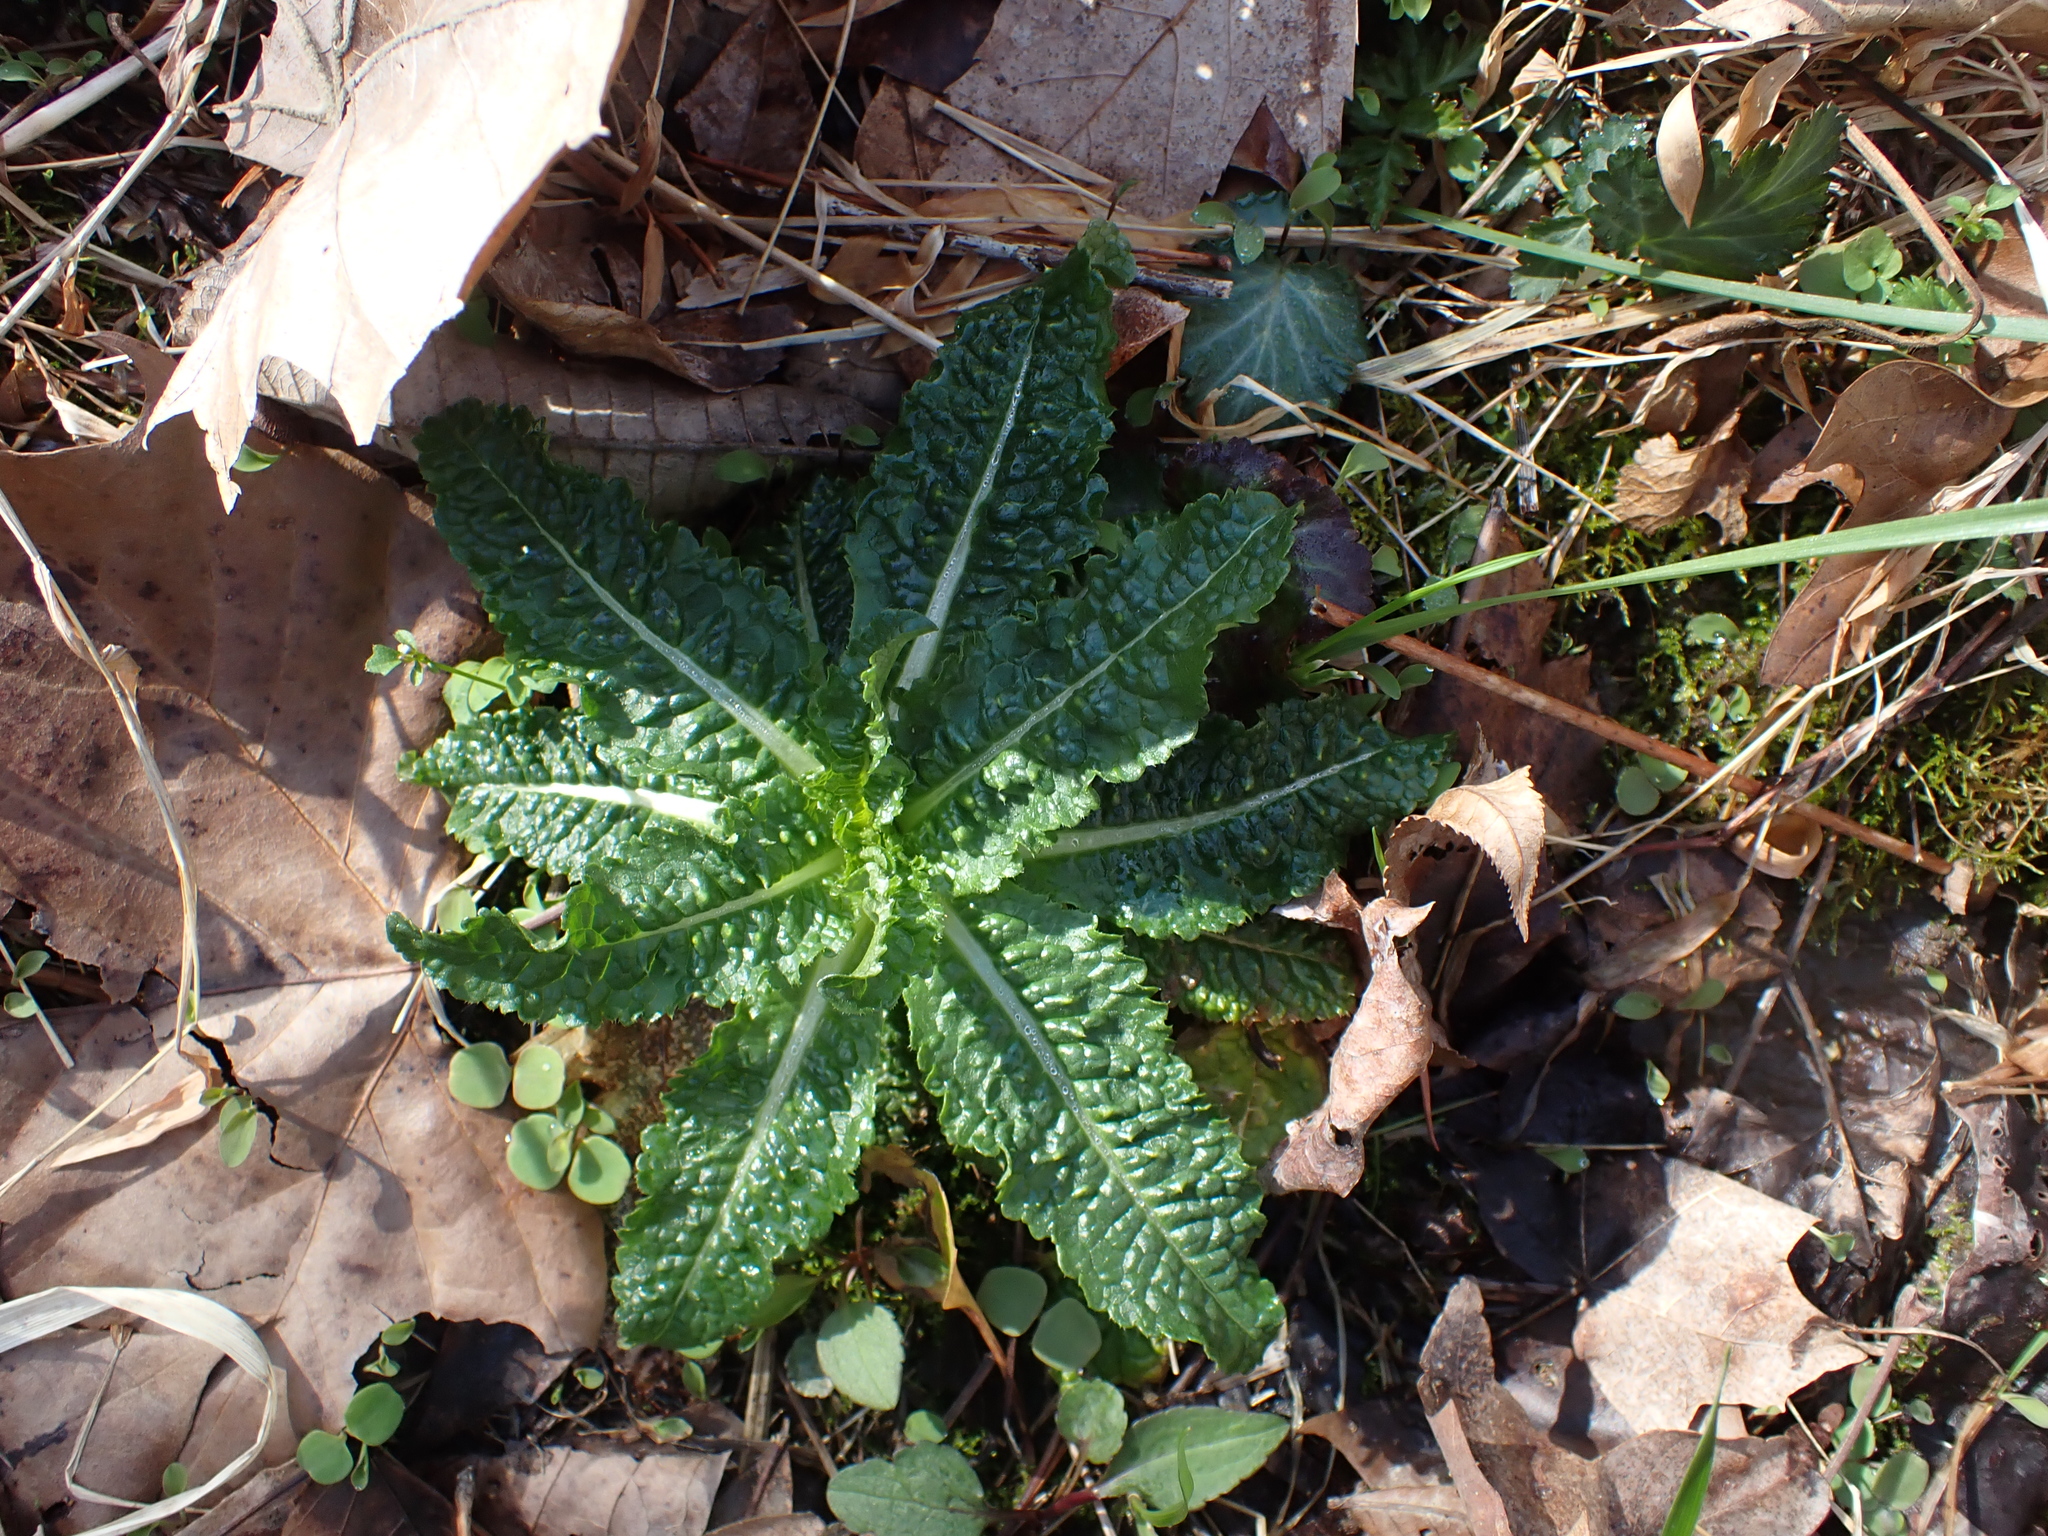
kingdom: Plantae
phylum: Tracheophyta
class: Magnoliopsida
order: Dipsacales
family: Caprifoliaceae
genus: Dipsacus
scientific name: Dipsacus fullonum
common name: Teasel
